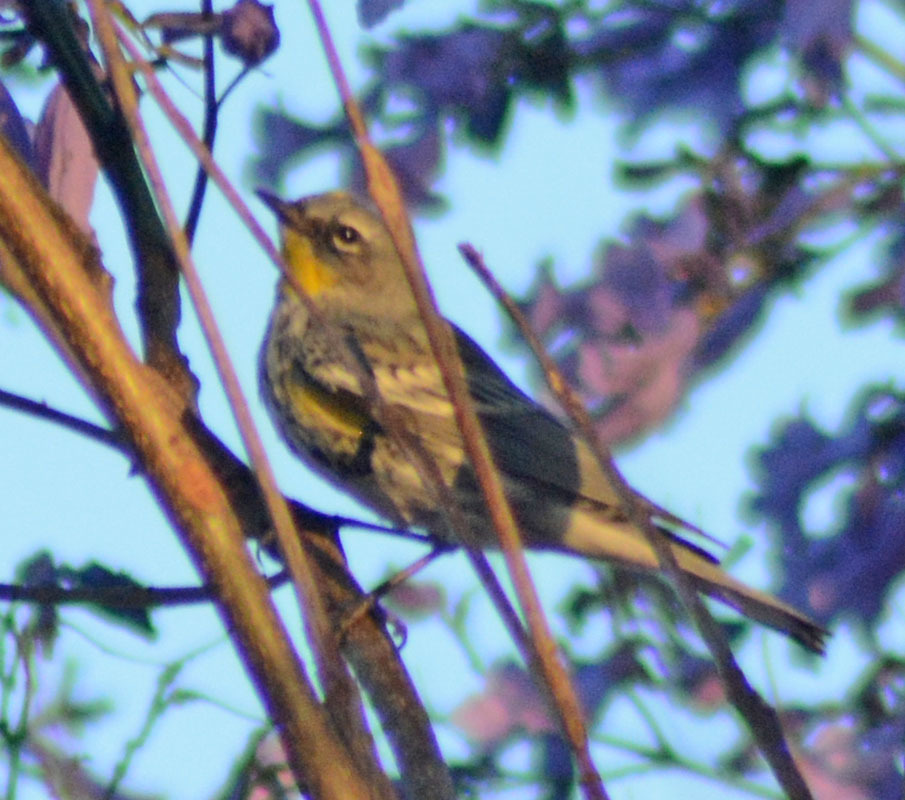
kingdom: Animalia
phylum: Chordata
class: Aves
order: Passeriformes
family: Parulidae
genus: Setophaga
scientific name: Setophaga auduboni
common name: Audubon's warbler
